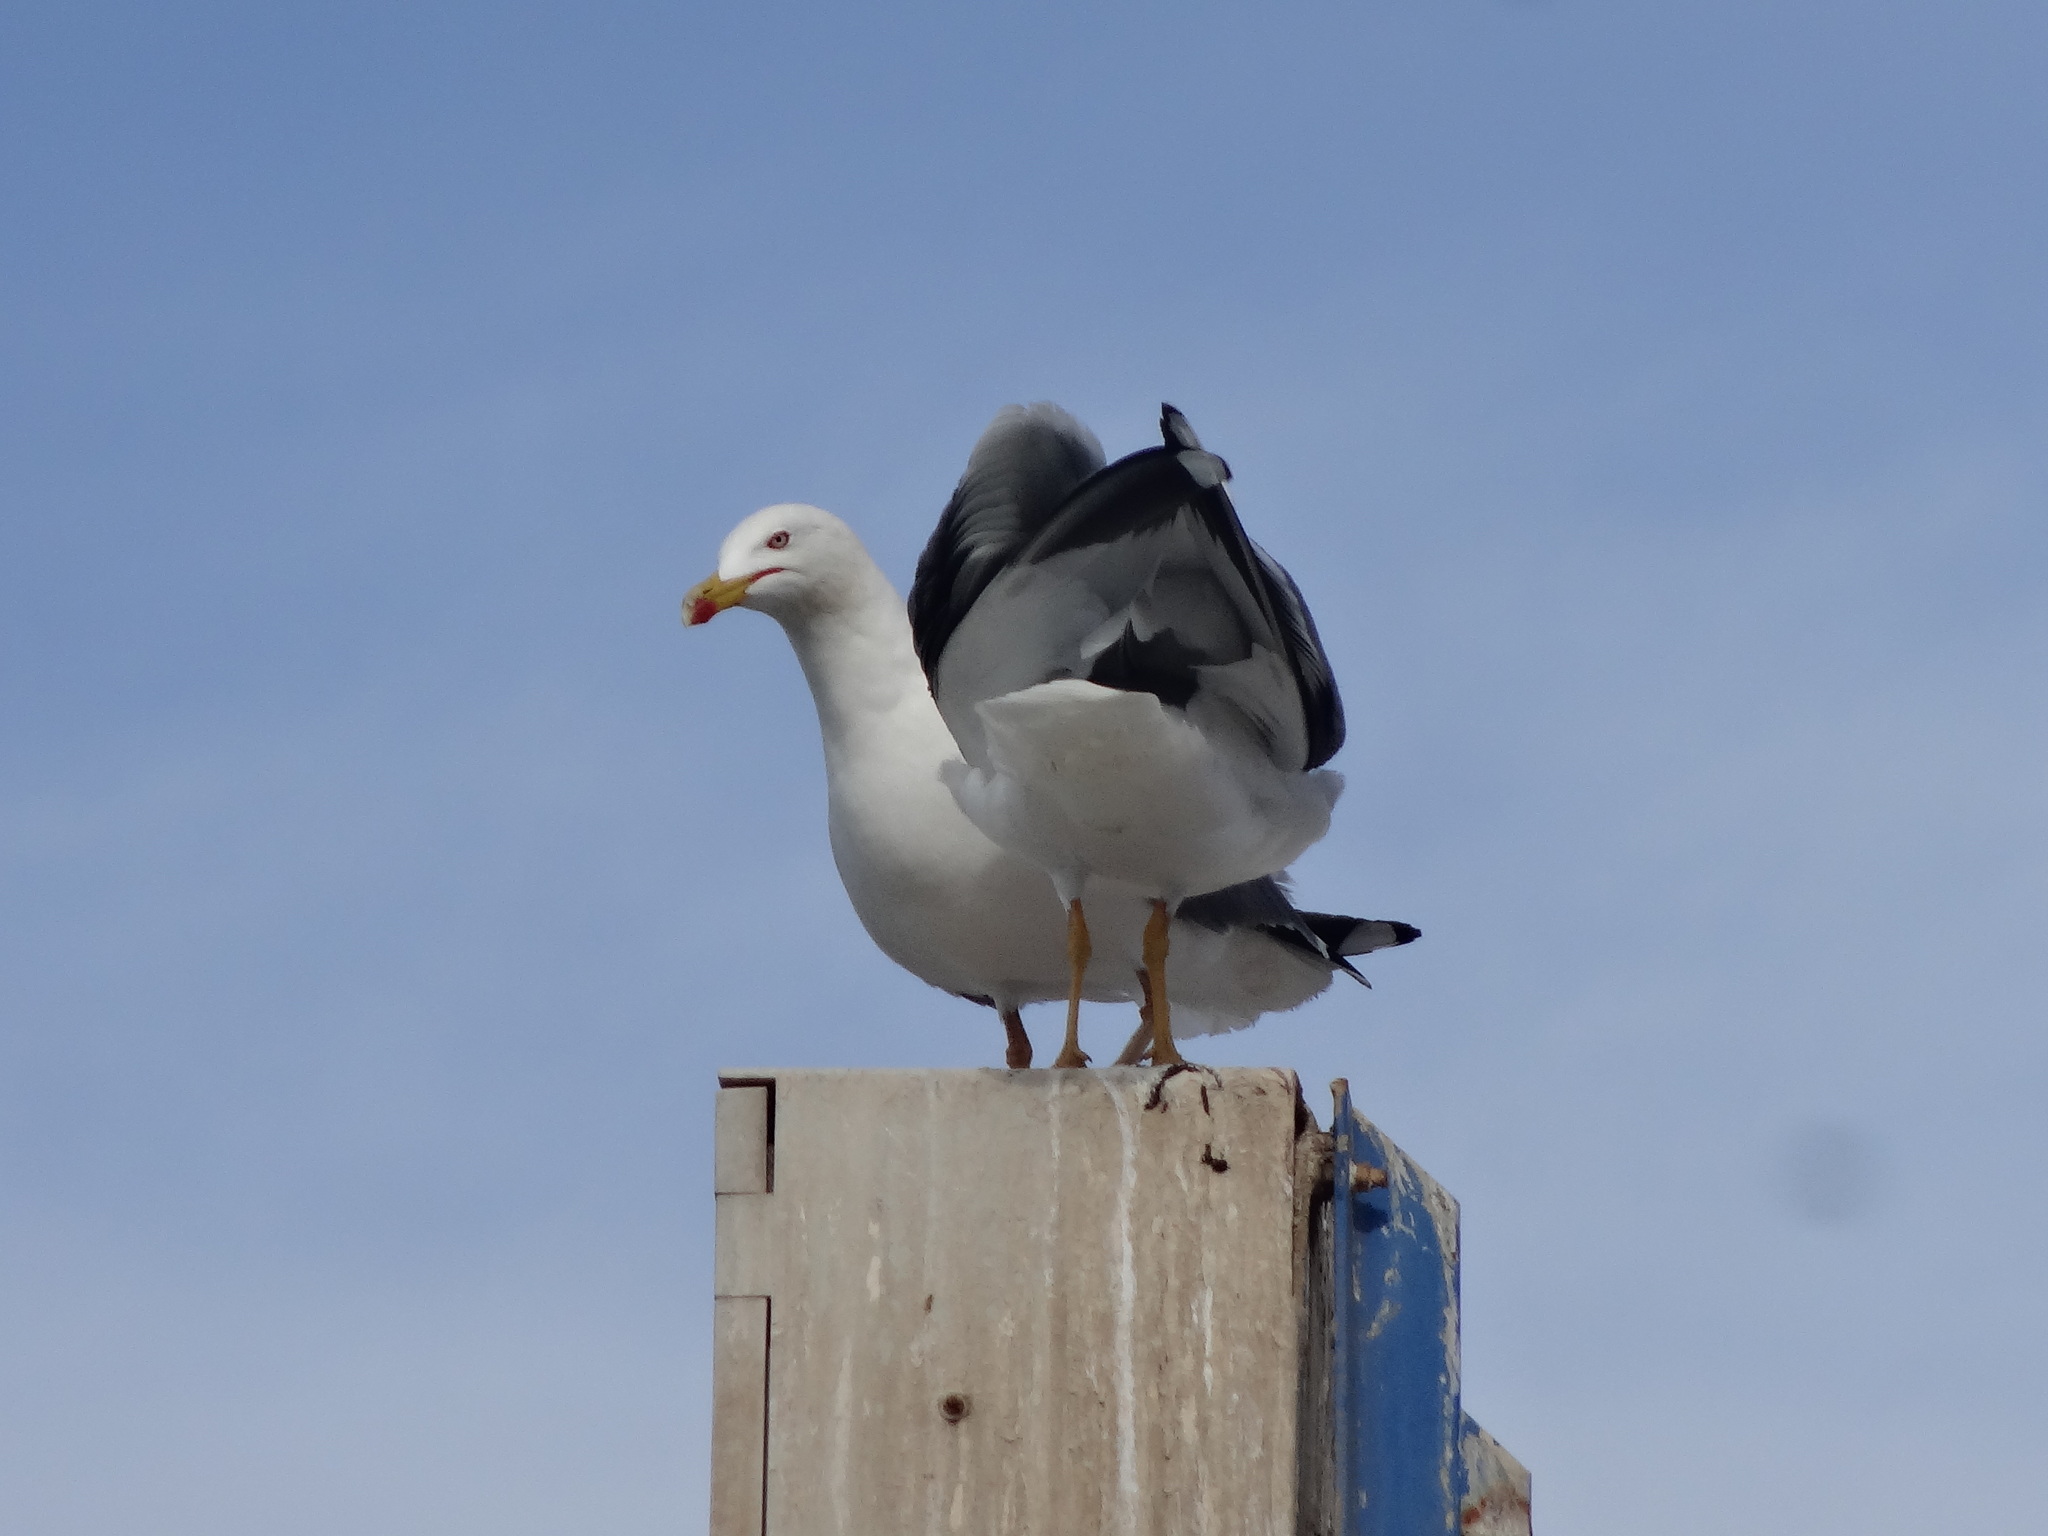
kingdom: Animalia
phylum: Chordata
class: Aves
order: Charadriiformes
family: Laridae
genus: Larus
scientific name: Larus michahellis
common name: Yellow-legged gull
